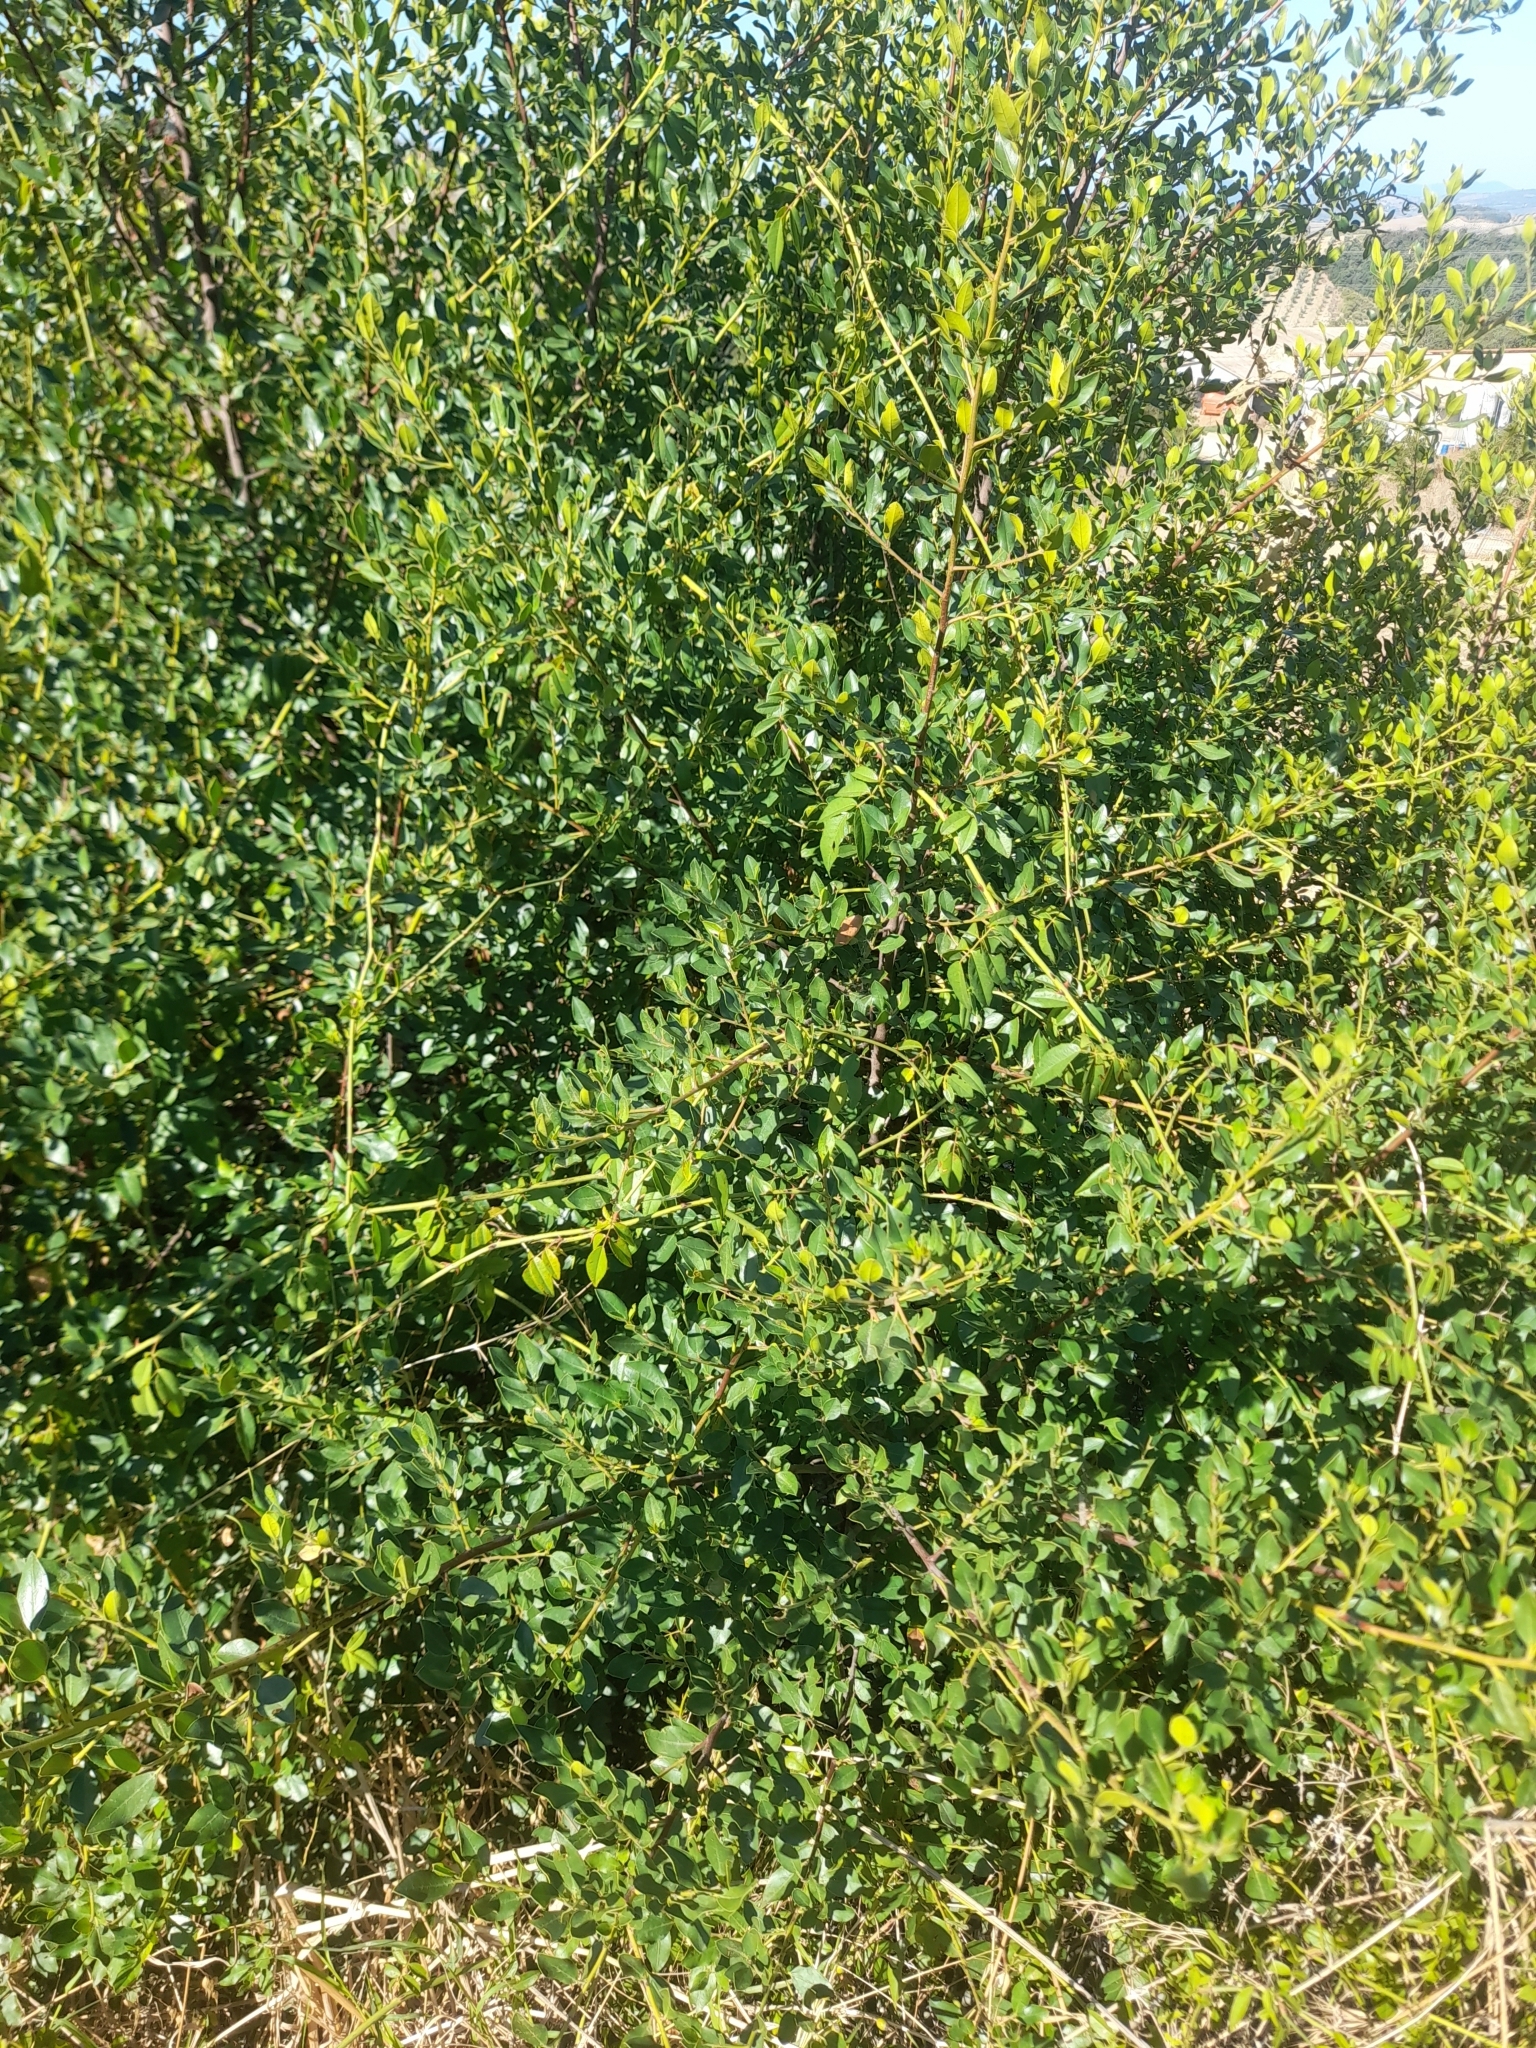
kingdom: Plantae
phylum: Tracheophyta
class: Magnoliopsida
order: Rosales
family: Rhamnaceae
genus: Rhamnus
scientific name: Rhamnus alaternus
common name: Mediterranean buckthorn
